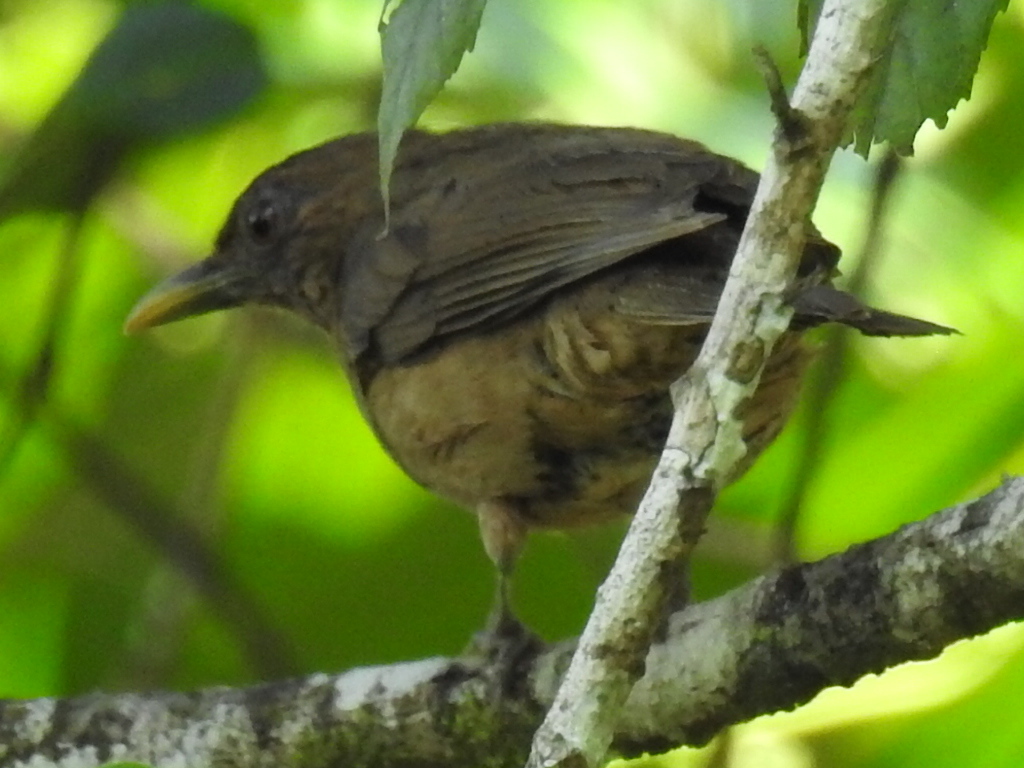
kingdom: Animalia
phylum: Chordata
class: Aves
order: Passeriformes
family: Turdidae
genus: Turdus
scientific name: Turdus grayi
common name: Clay-colored thrush
